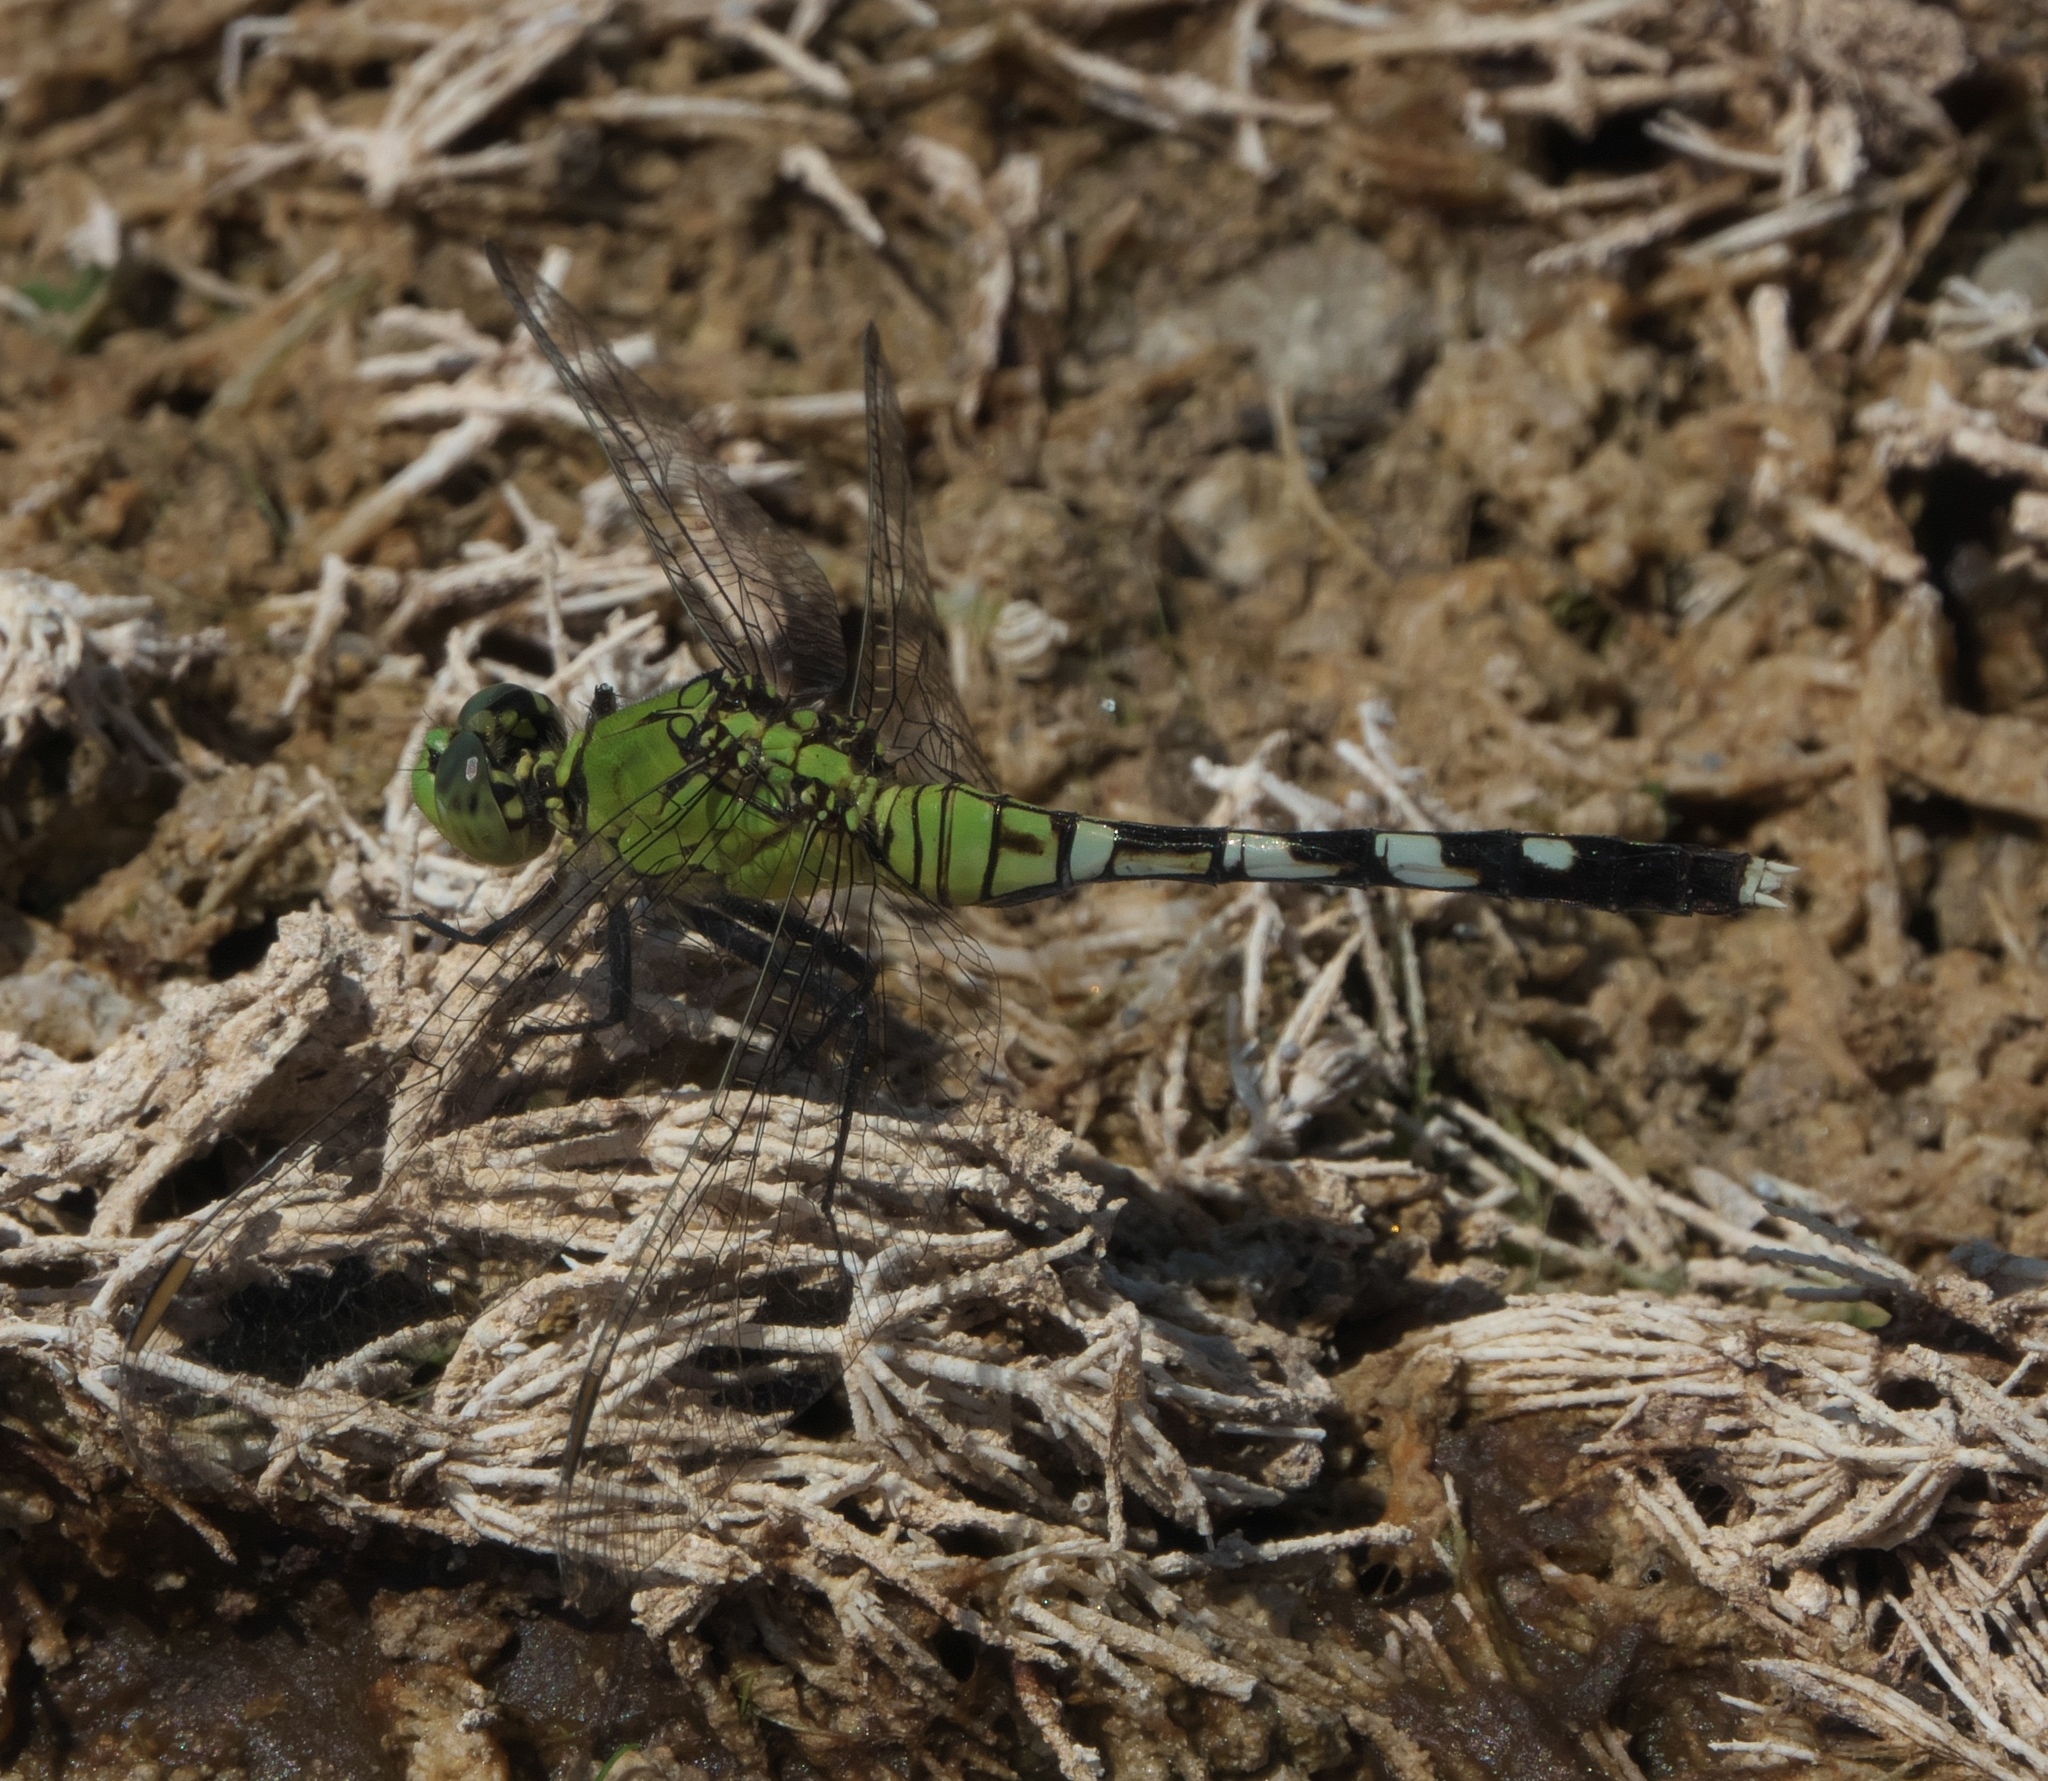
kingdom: Animalia
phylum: Arthropoda
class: Insecta
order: Odonata
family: Libellulidae
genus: Erythemis
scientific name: Erythemis simplicicollis
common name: Eastern pondhawk
